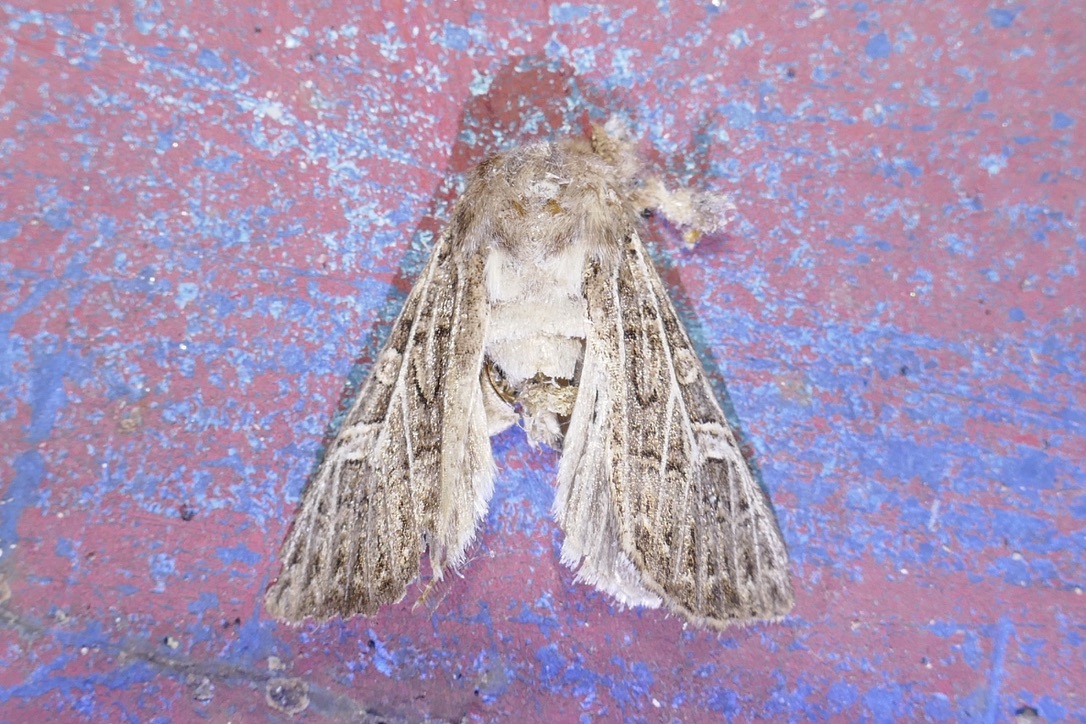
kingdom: Animalia
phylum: Arthropoda
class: Insecta
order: Lepidoptera
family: Noctuidae
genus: Tholera
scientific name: Tholera decimalis
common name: Feathered gothic
